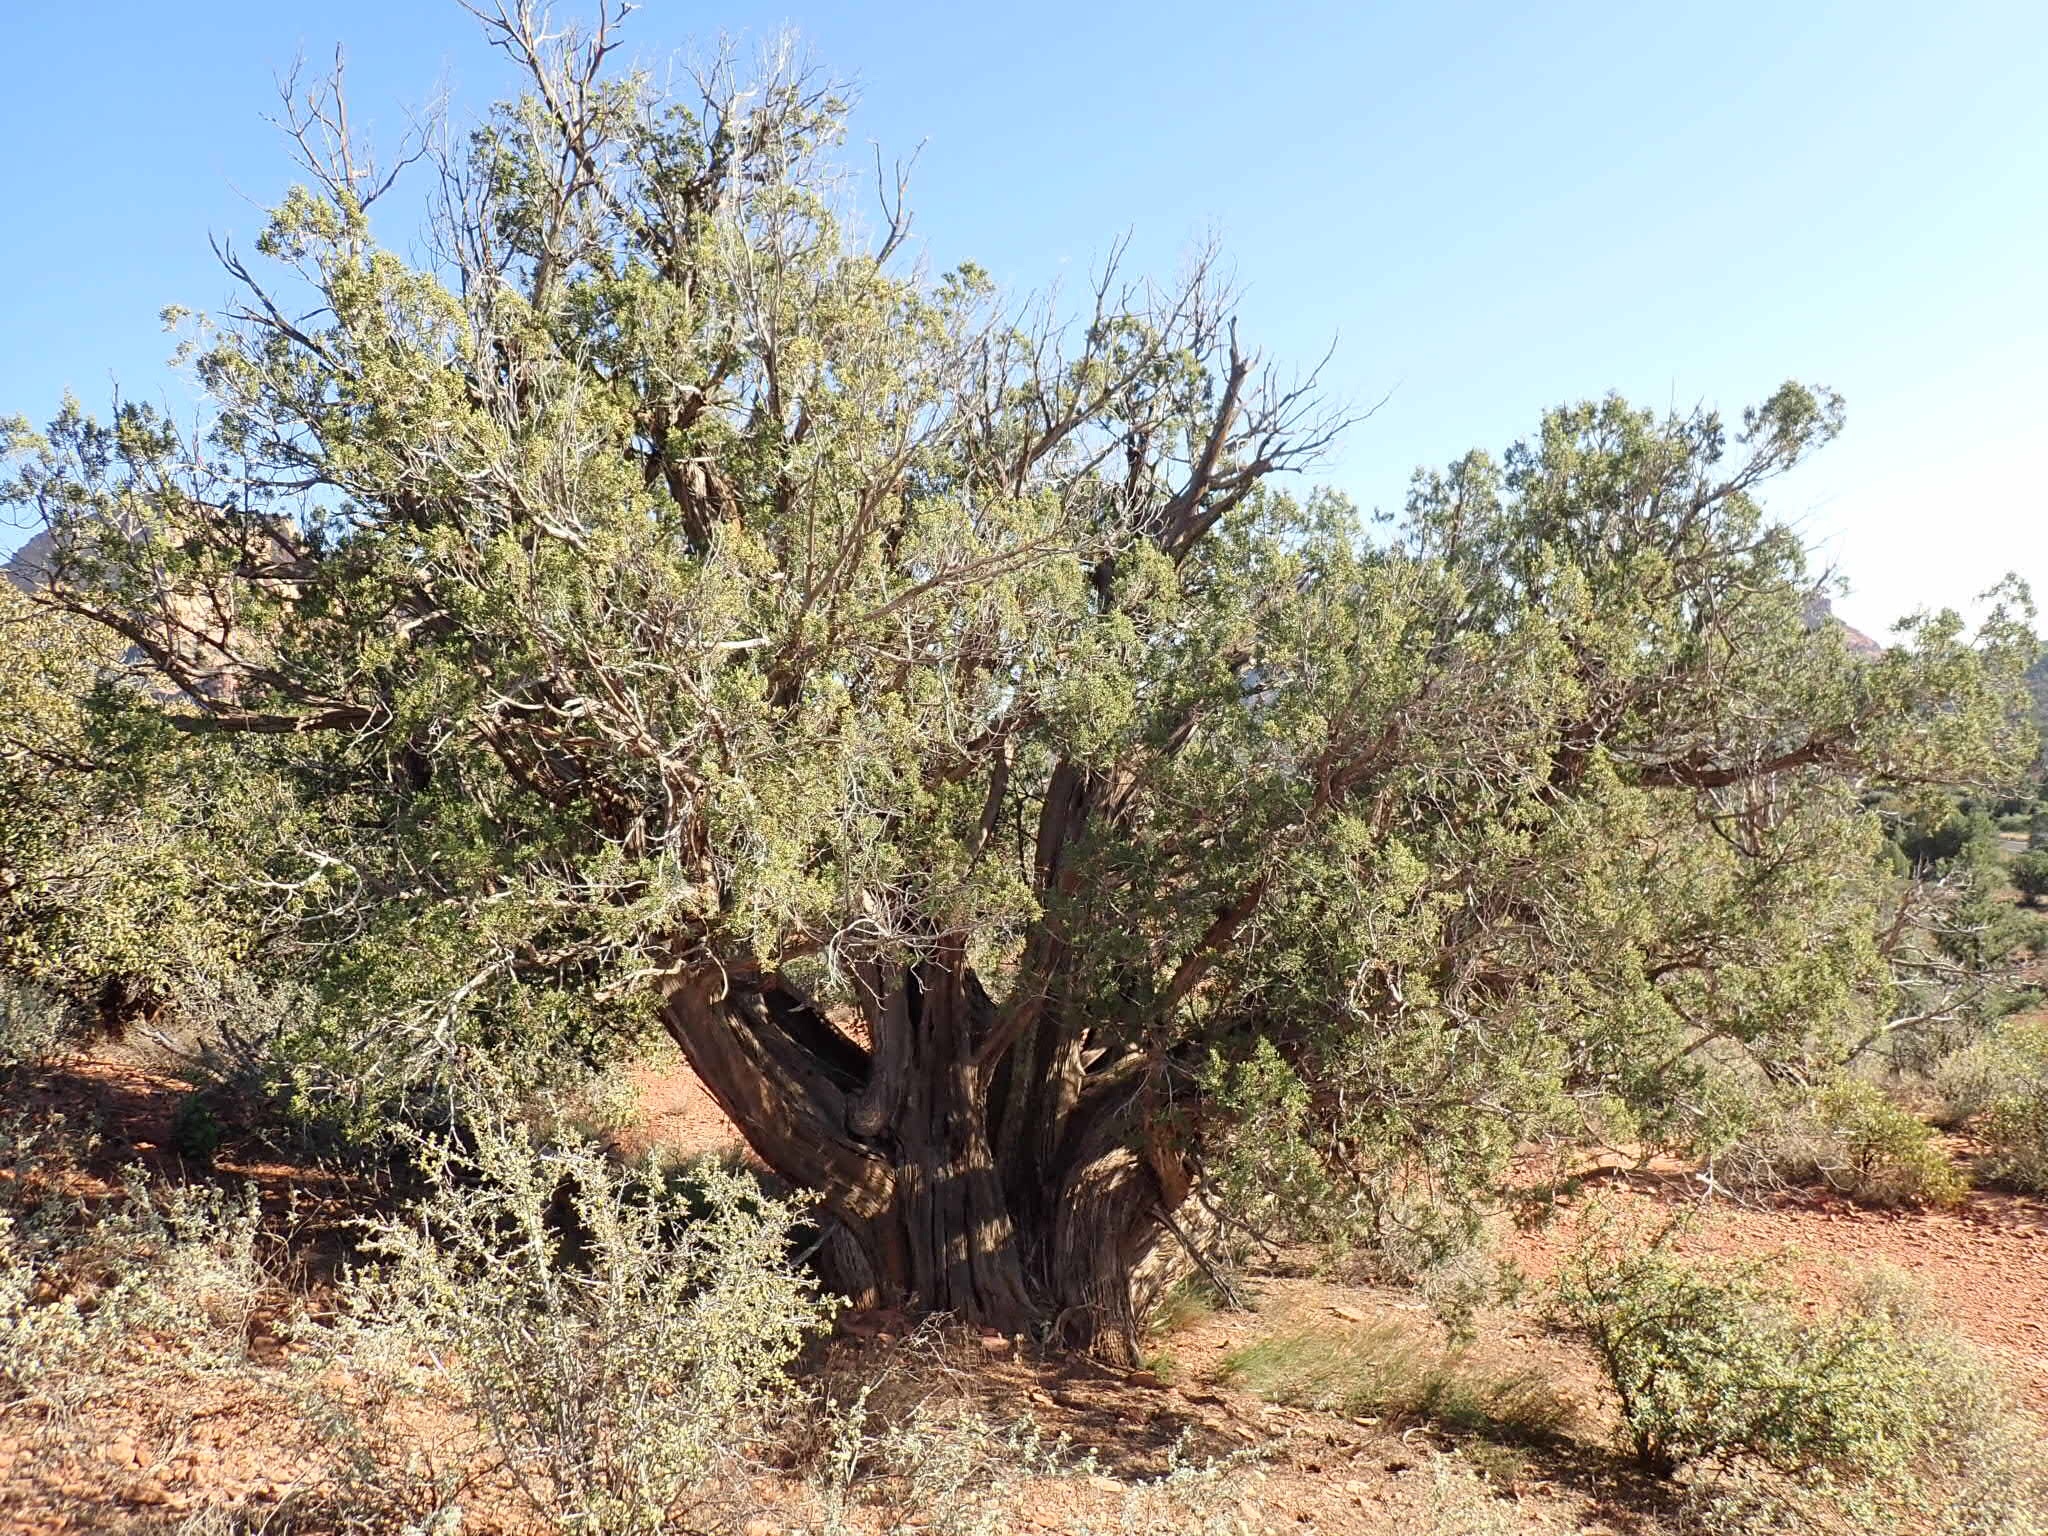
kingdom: Plantae
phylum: Tracheophyta
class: Pinopsida
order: Pinales
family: Cupressaceae
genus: Juniperus
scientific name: Juniperus monosperma
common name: One-seed juniper
